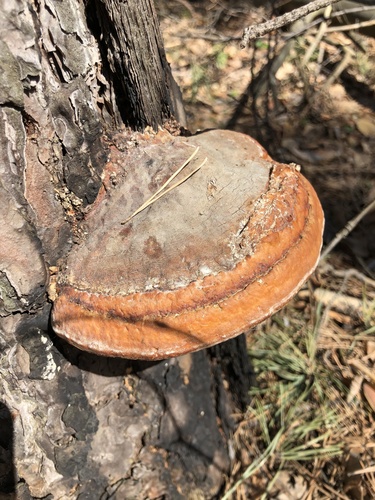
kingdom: Fungi
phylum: Basidiomycota
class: Agaricomycetes
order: Polyporales
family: Fomitopsidaceae
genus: Fomitopsis
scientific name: Fomitopsis pinicola
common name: Red-belted bracket
